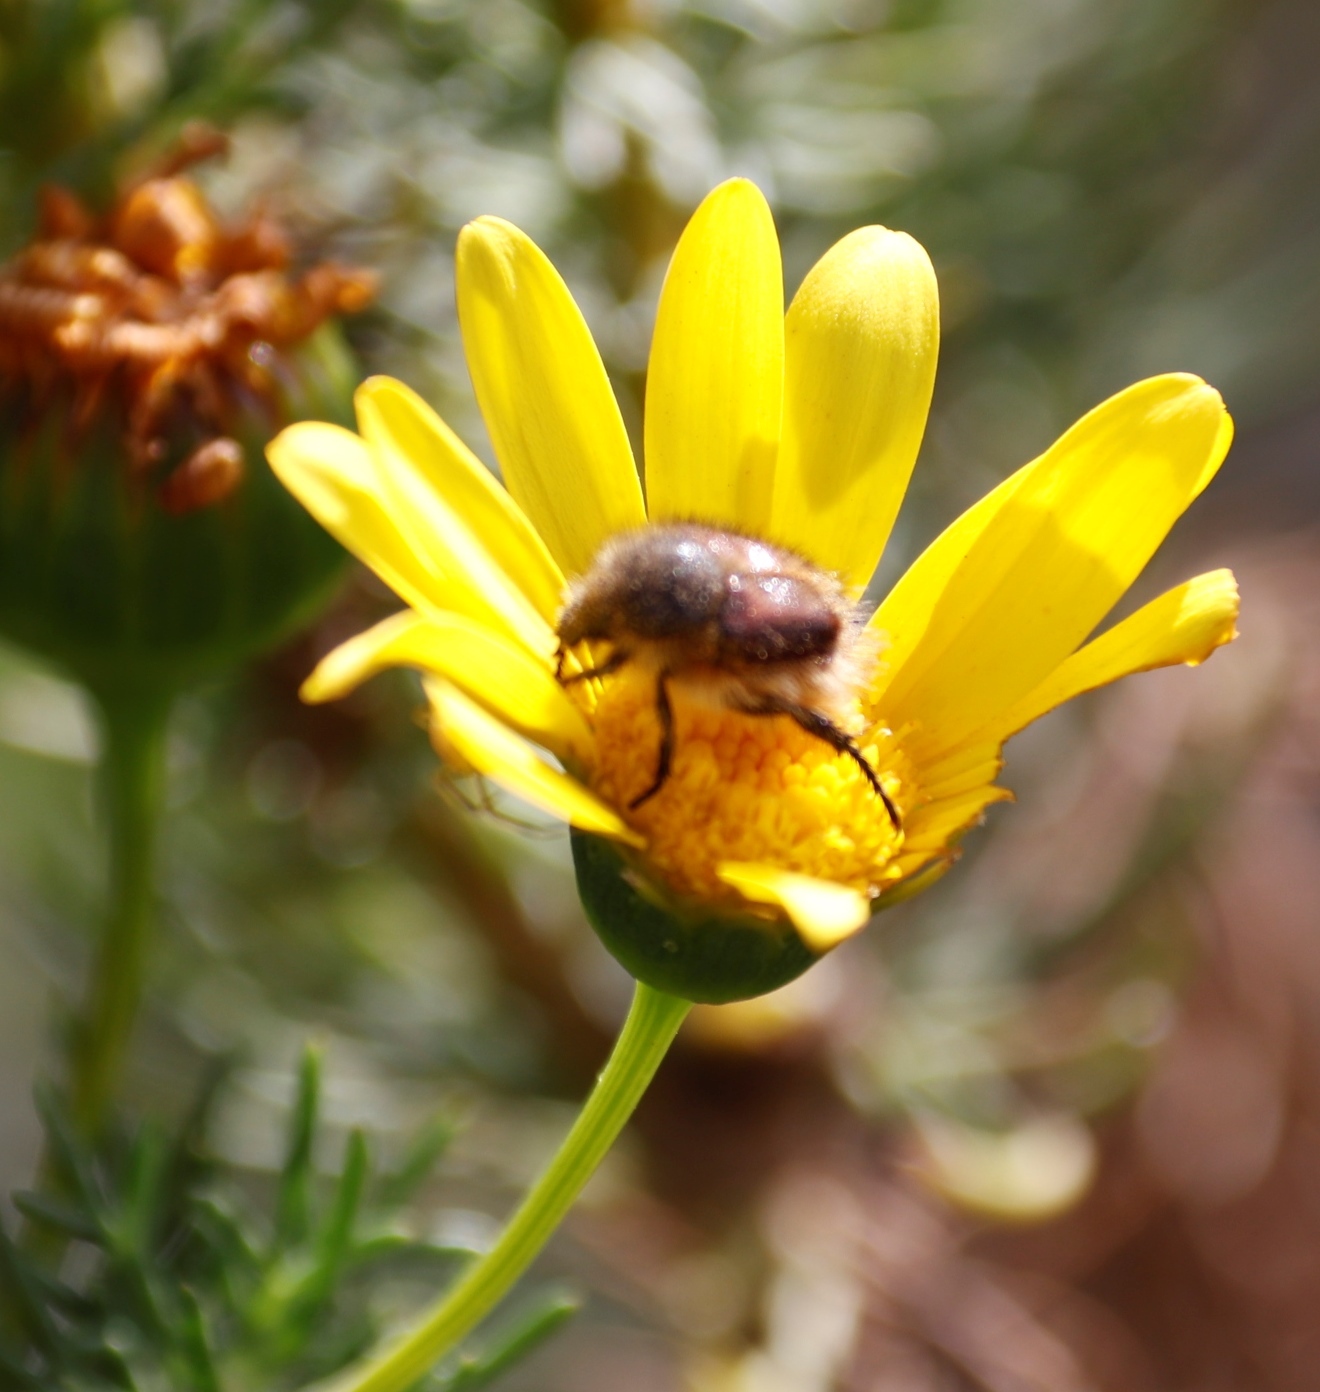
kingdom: Plantae
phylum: Tracheophyta
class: Magnoliopsida
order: Asterales
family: Asteraceae
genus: Euryops
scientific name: Euryops abrotanifolius
